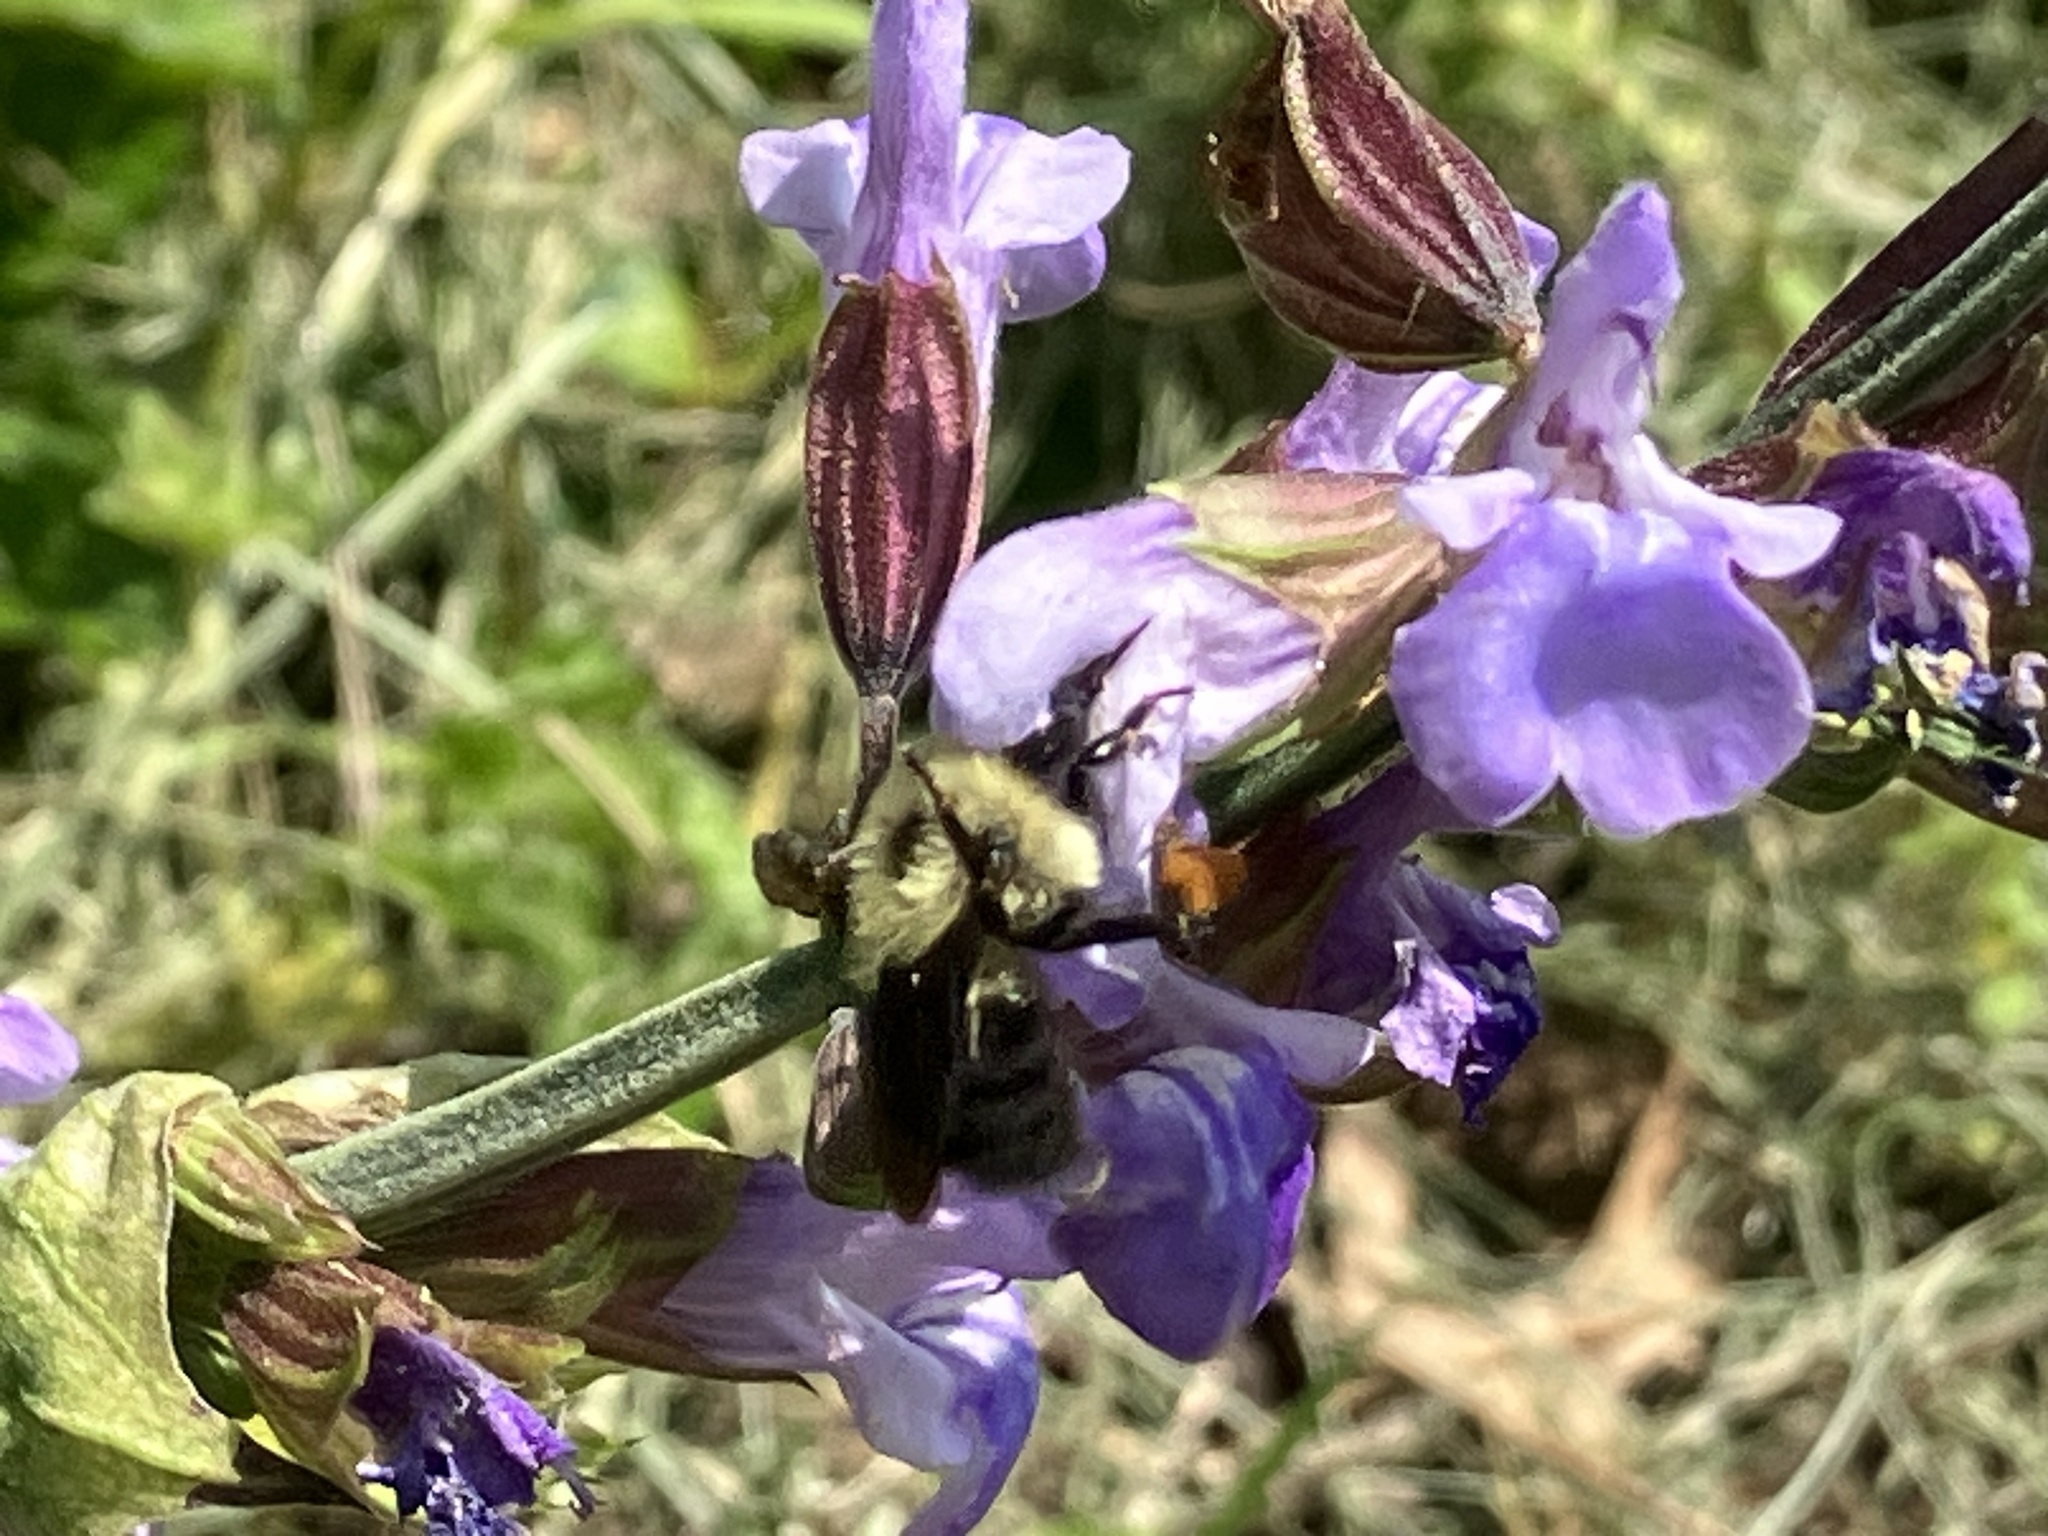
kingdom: Animalia
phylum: Arthropoda
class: Insecta
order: Hymenoptera
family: Apidae
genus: Bombus
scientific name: Bombus bimaculatus
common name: Two-spotted bumble bee
